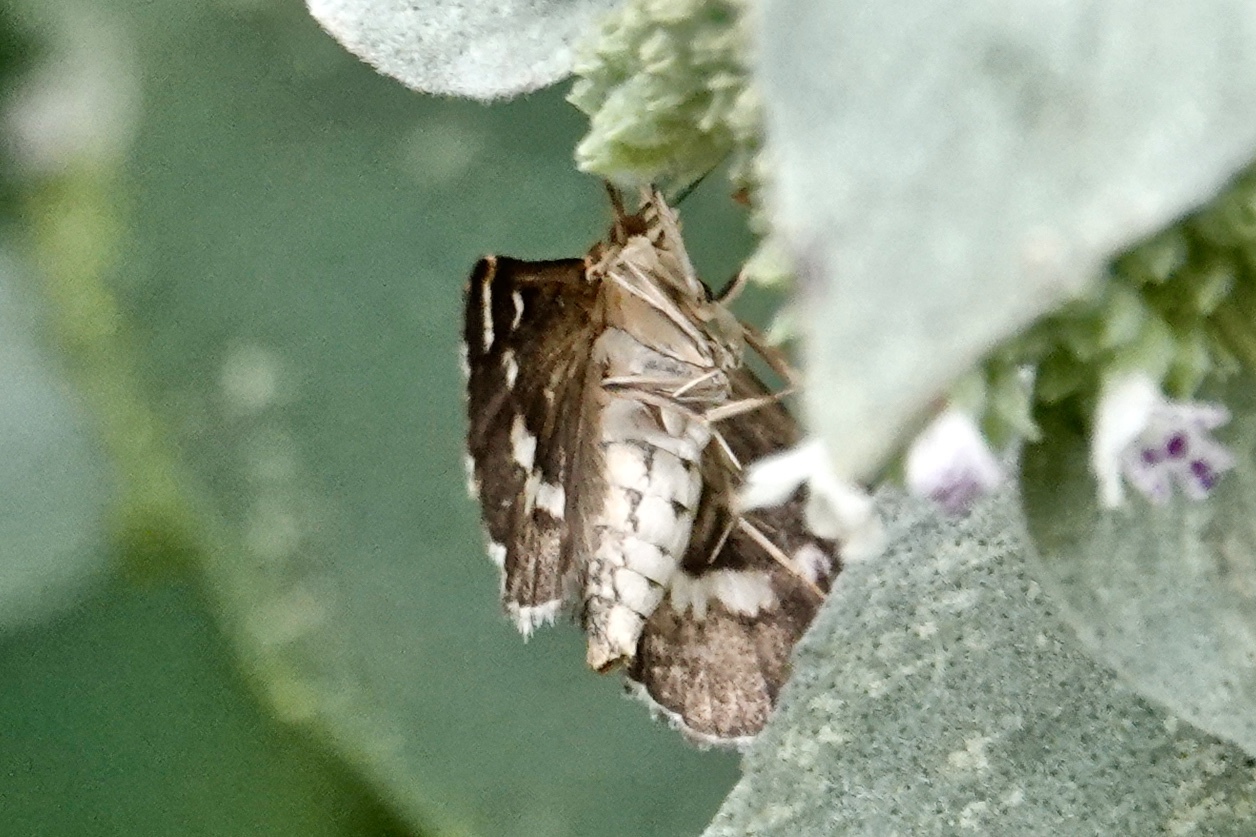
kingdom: Animalia
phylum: Arthropoda
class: Insecta
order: Lepidoptera
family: Crambidae
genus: Hymenia
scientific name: Hymenia perspectalis
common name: Spotted beet webworm
